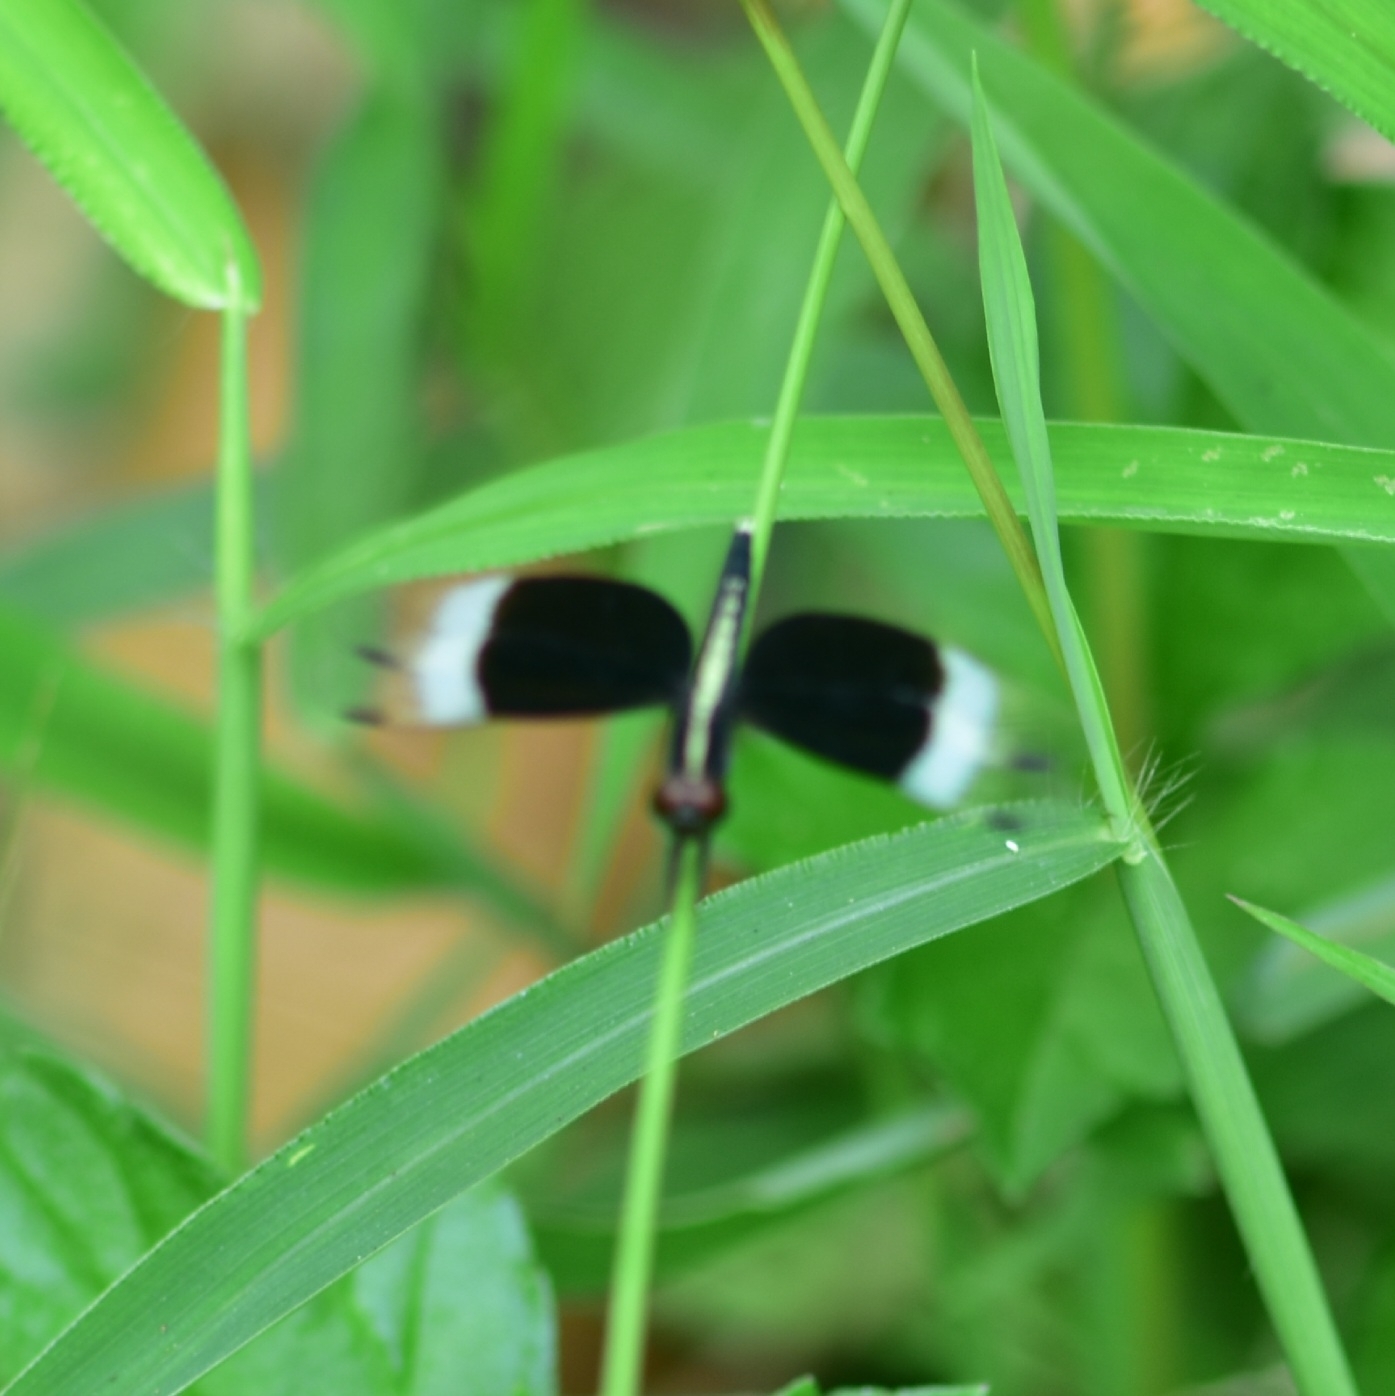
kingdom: Animalia
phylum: Arthropoda
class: Insecta
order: Odonata
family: Libellulidae
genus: Neurothemis
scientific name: Neurothemis tullia
